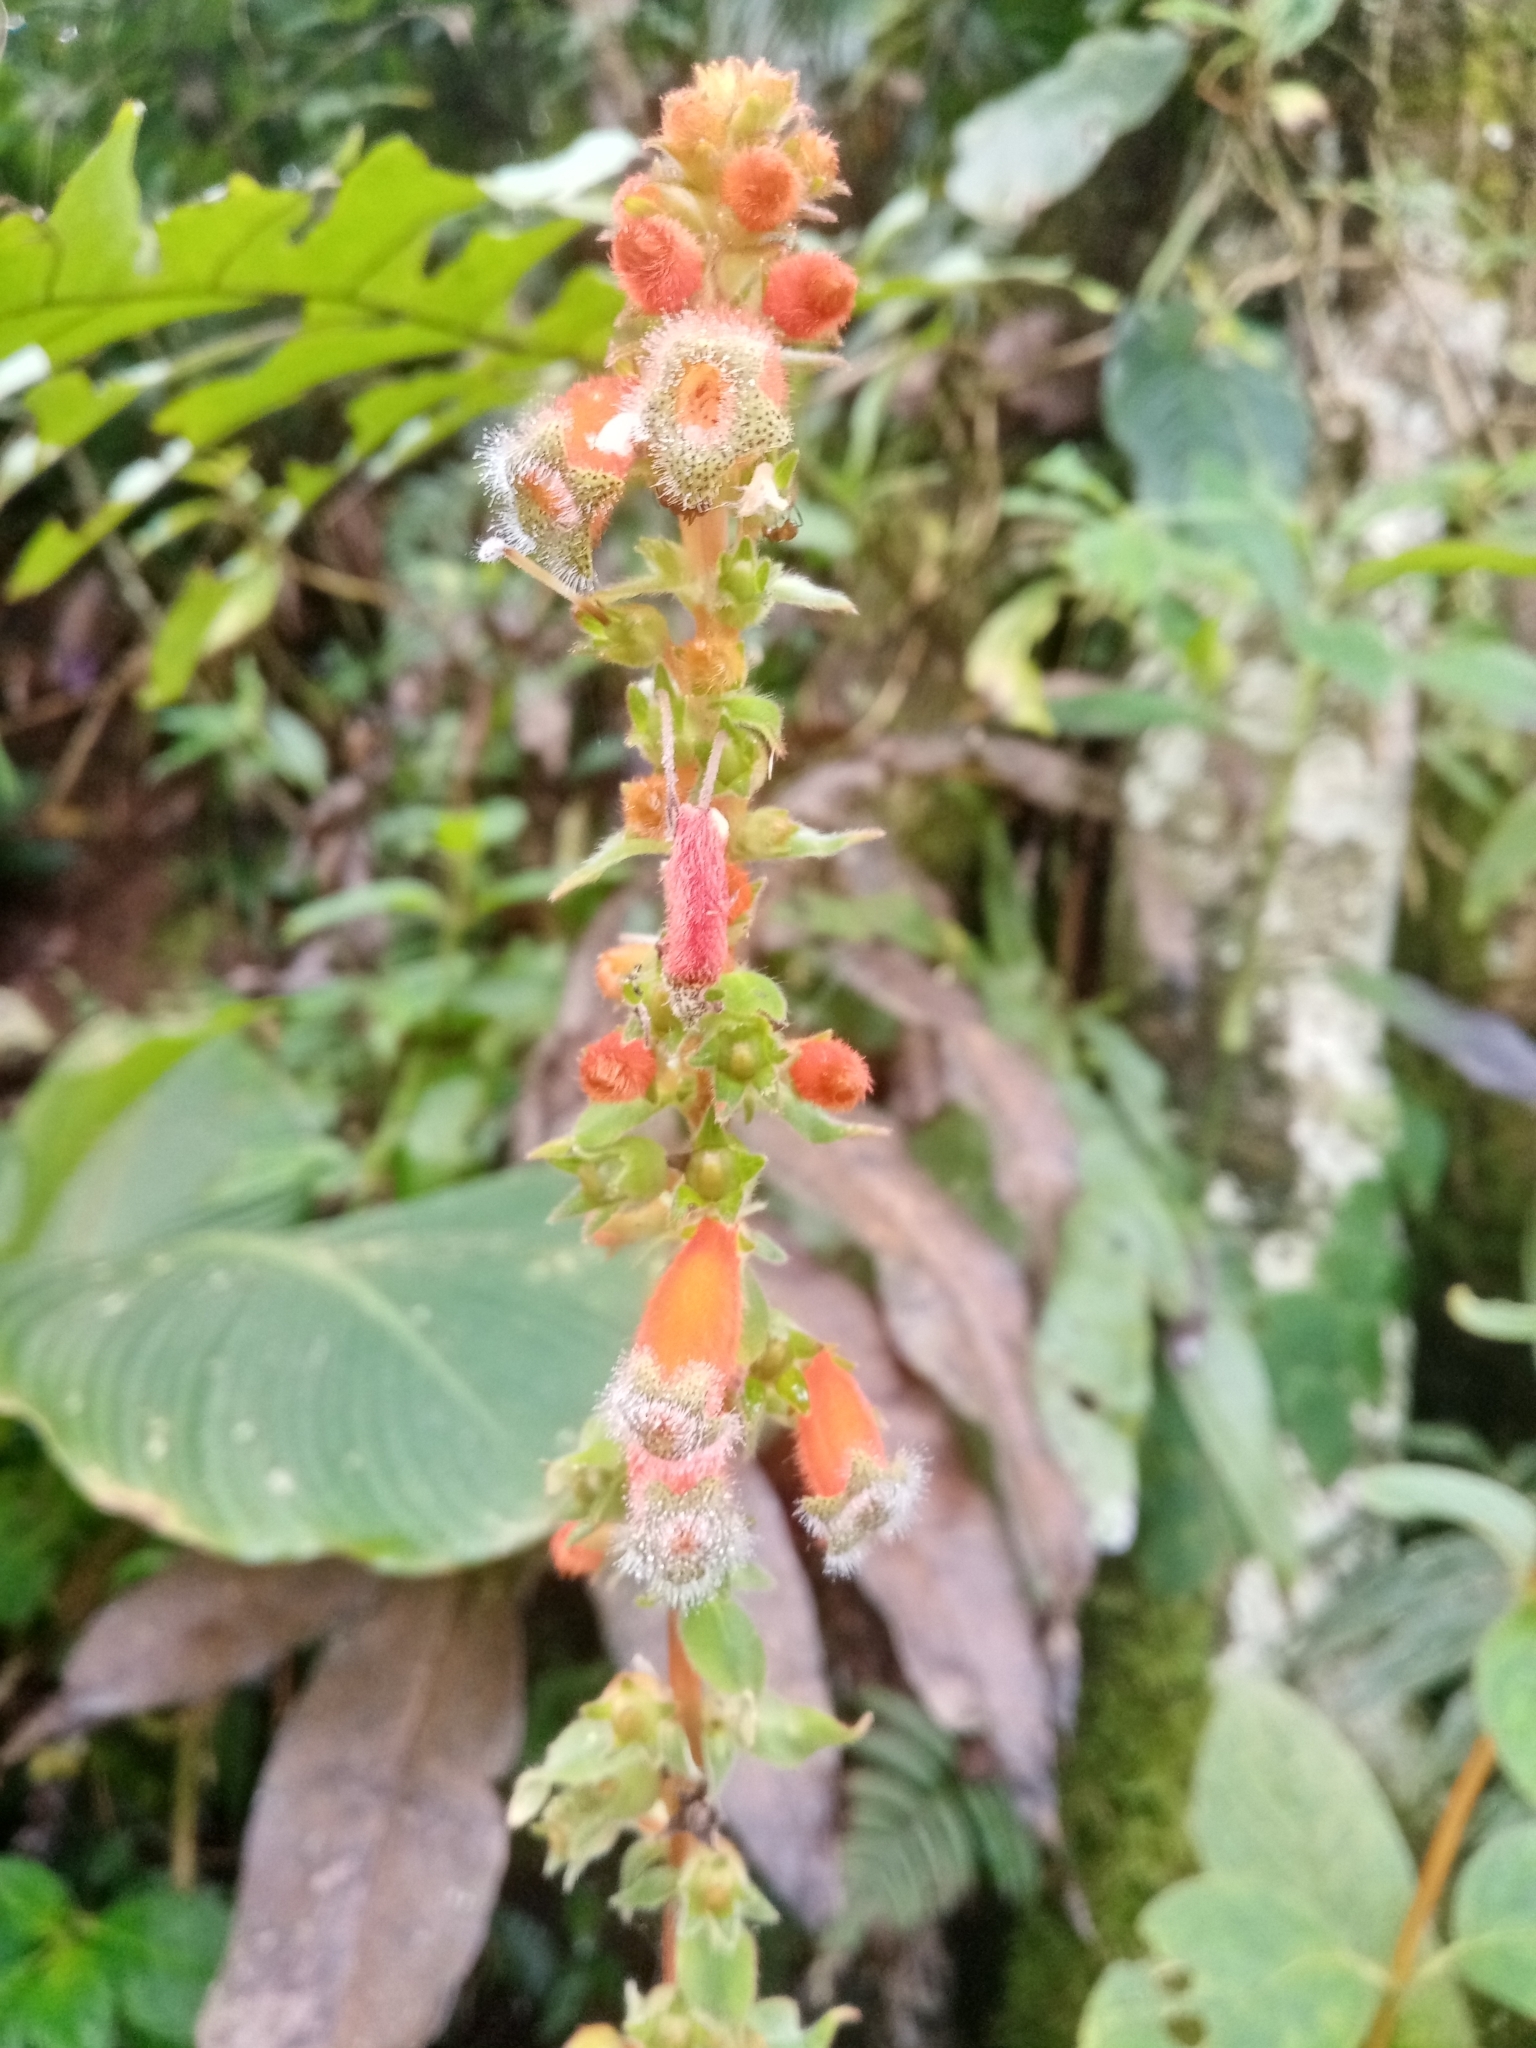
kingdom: Plantae
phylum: Tracheophyta
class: Magnoliopsida
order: Lamiales
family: Gesneriaceae
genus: Kohleria
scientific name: Kohleria stuebeliana
